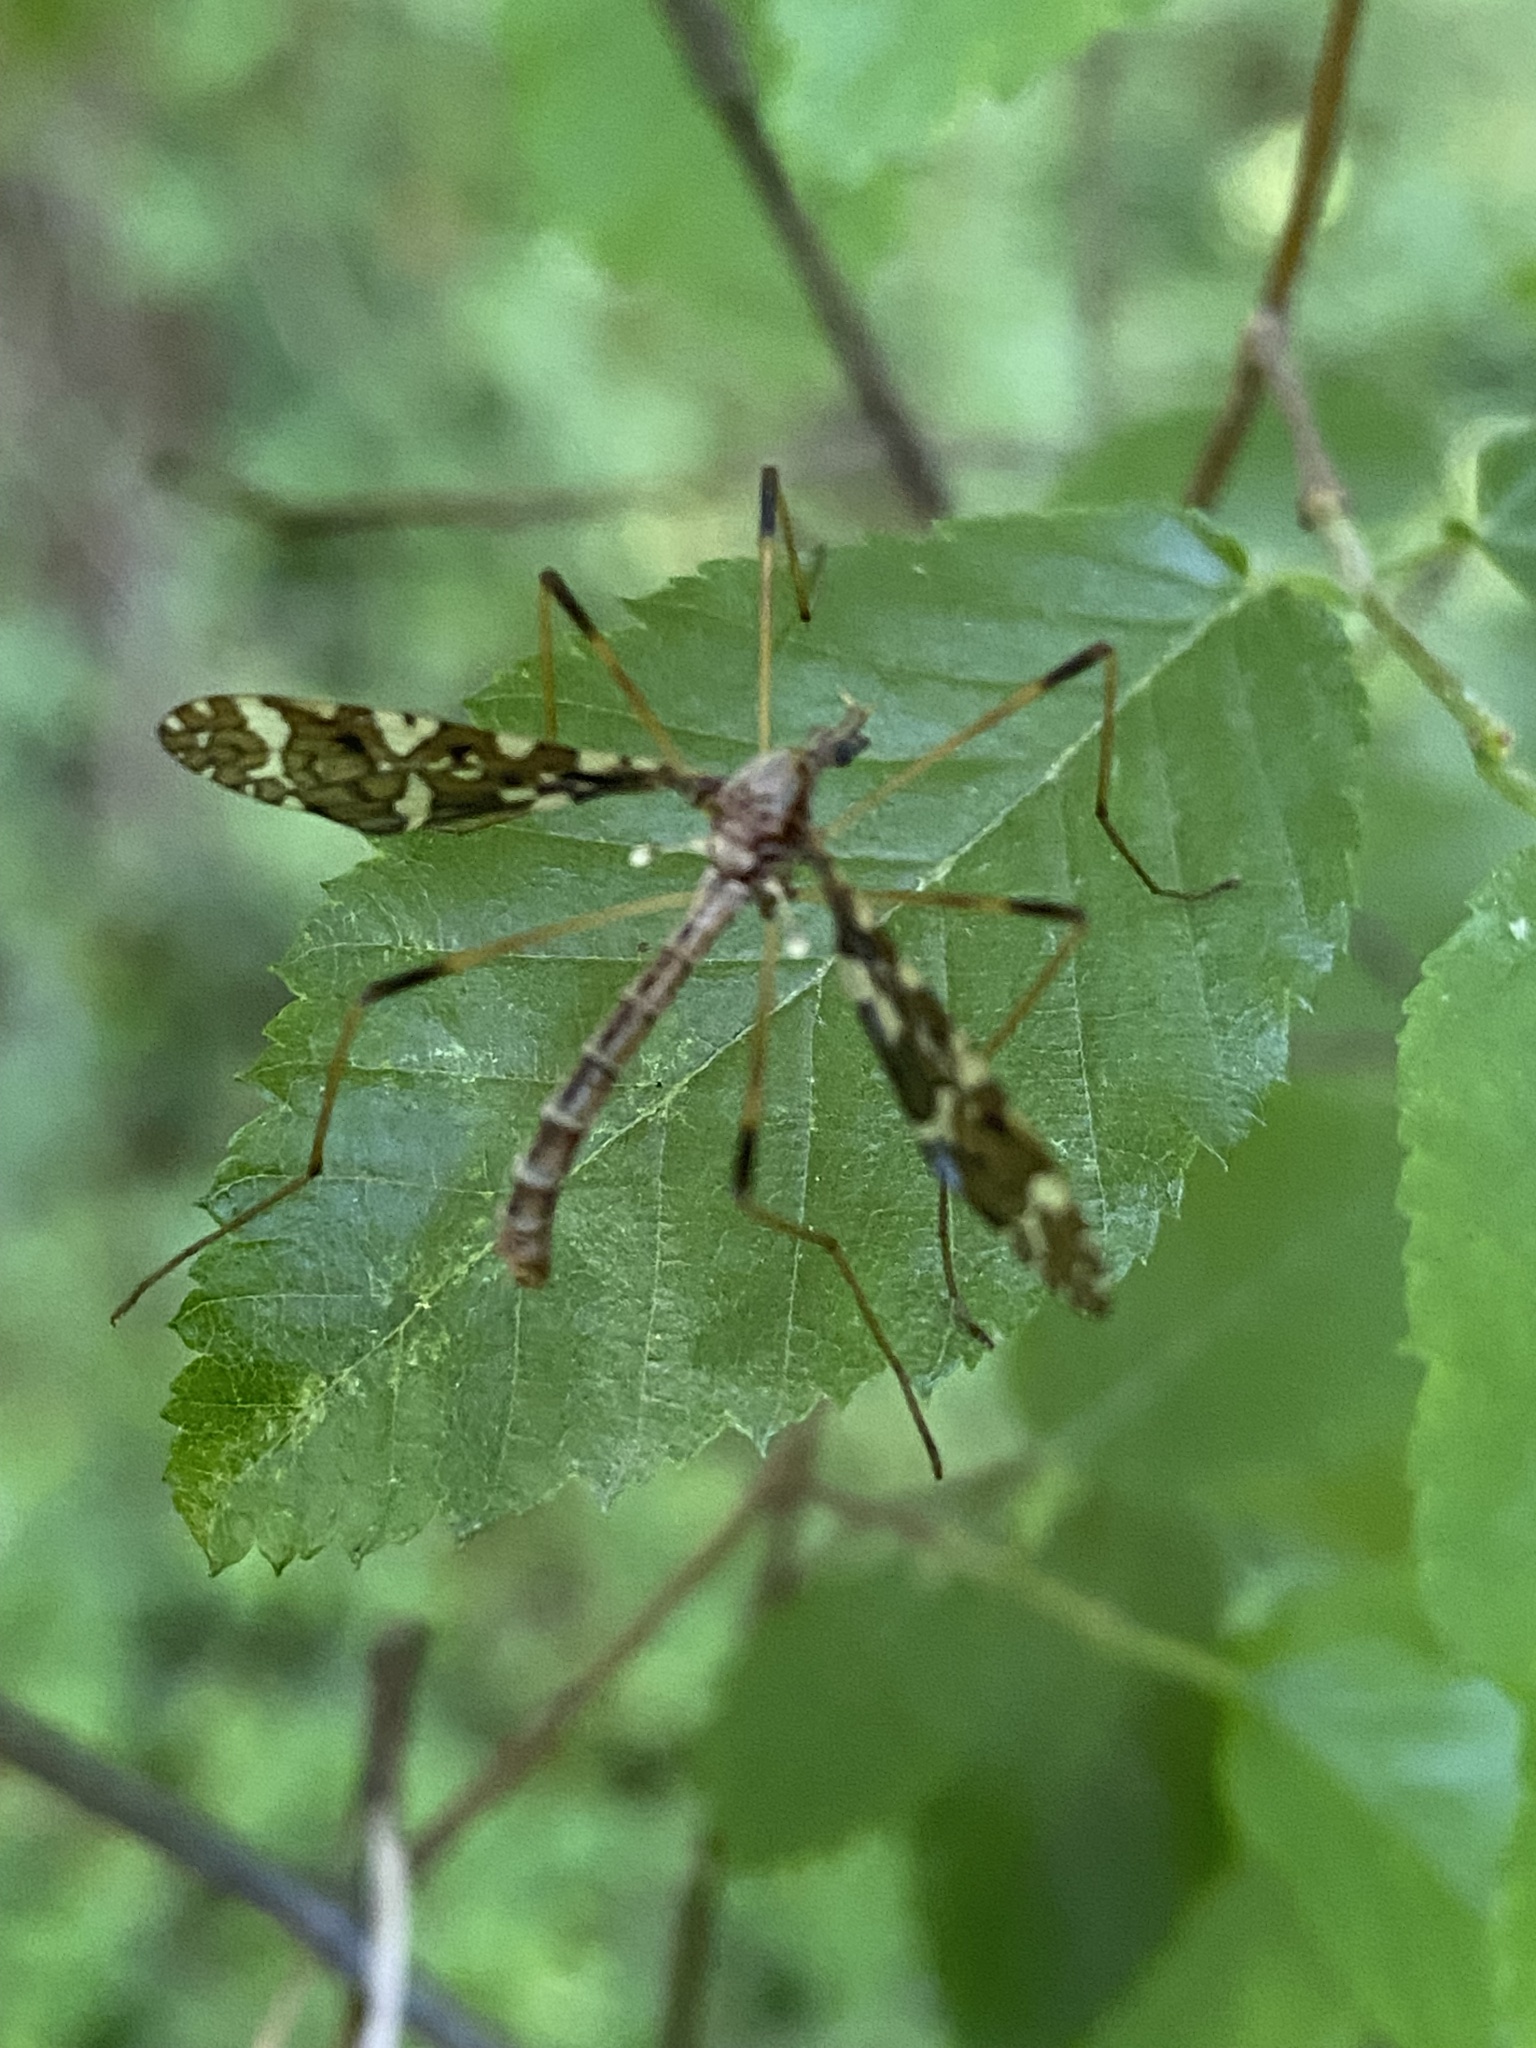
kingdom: Animalia
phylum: Arthropoda
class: Insecta
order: Diptera
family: Limoniidae
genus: Epiphragma
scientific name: Epiphragma fasciapenne
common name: Band-winged crane fly
